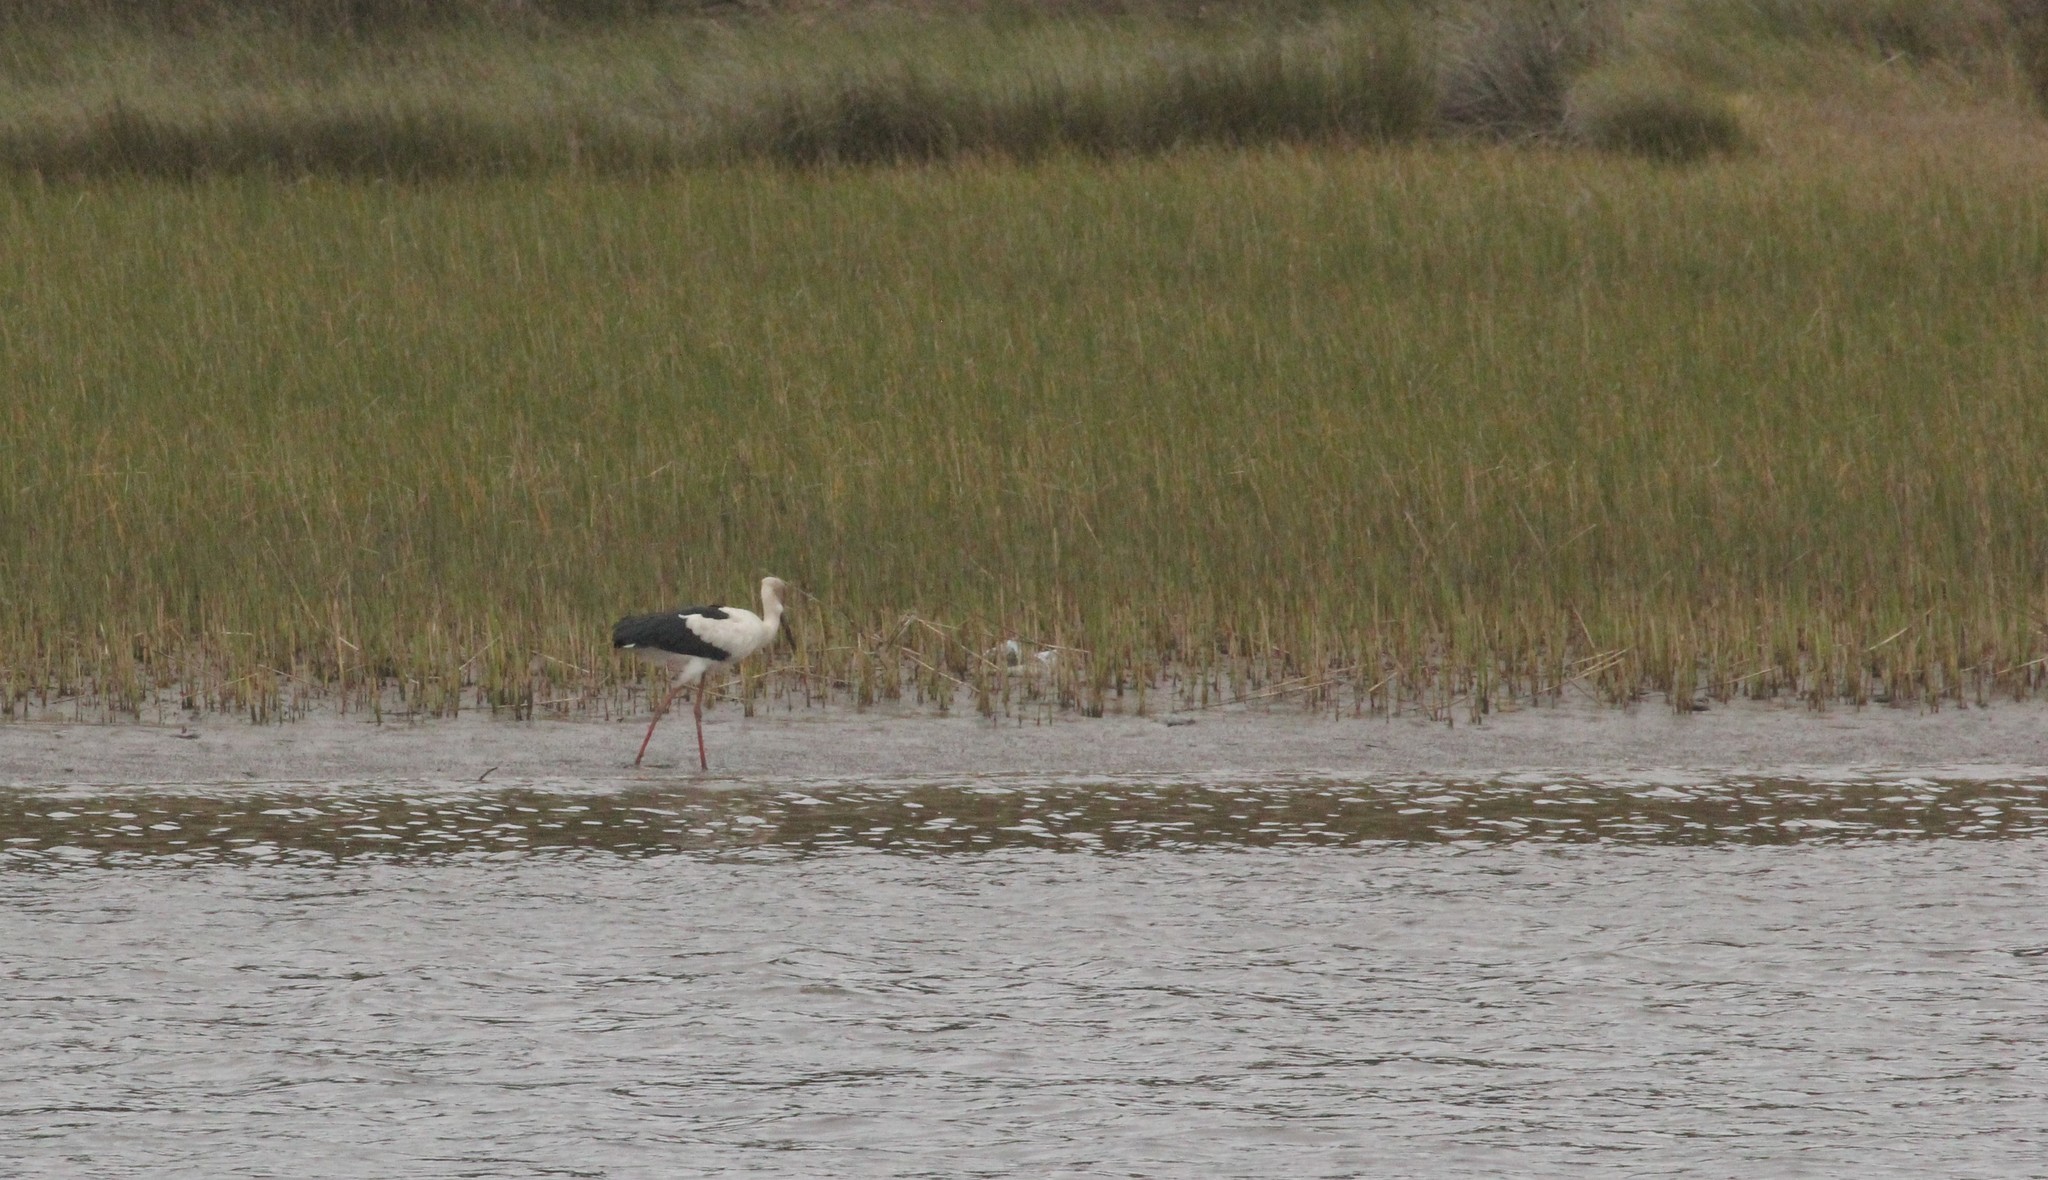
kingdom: Animalia
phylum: Chordata
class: Aves
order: Ciconiiformes
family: Ciconiidae
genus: Ciconia
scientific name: Ciconia maguari
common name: Maguari stork
